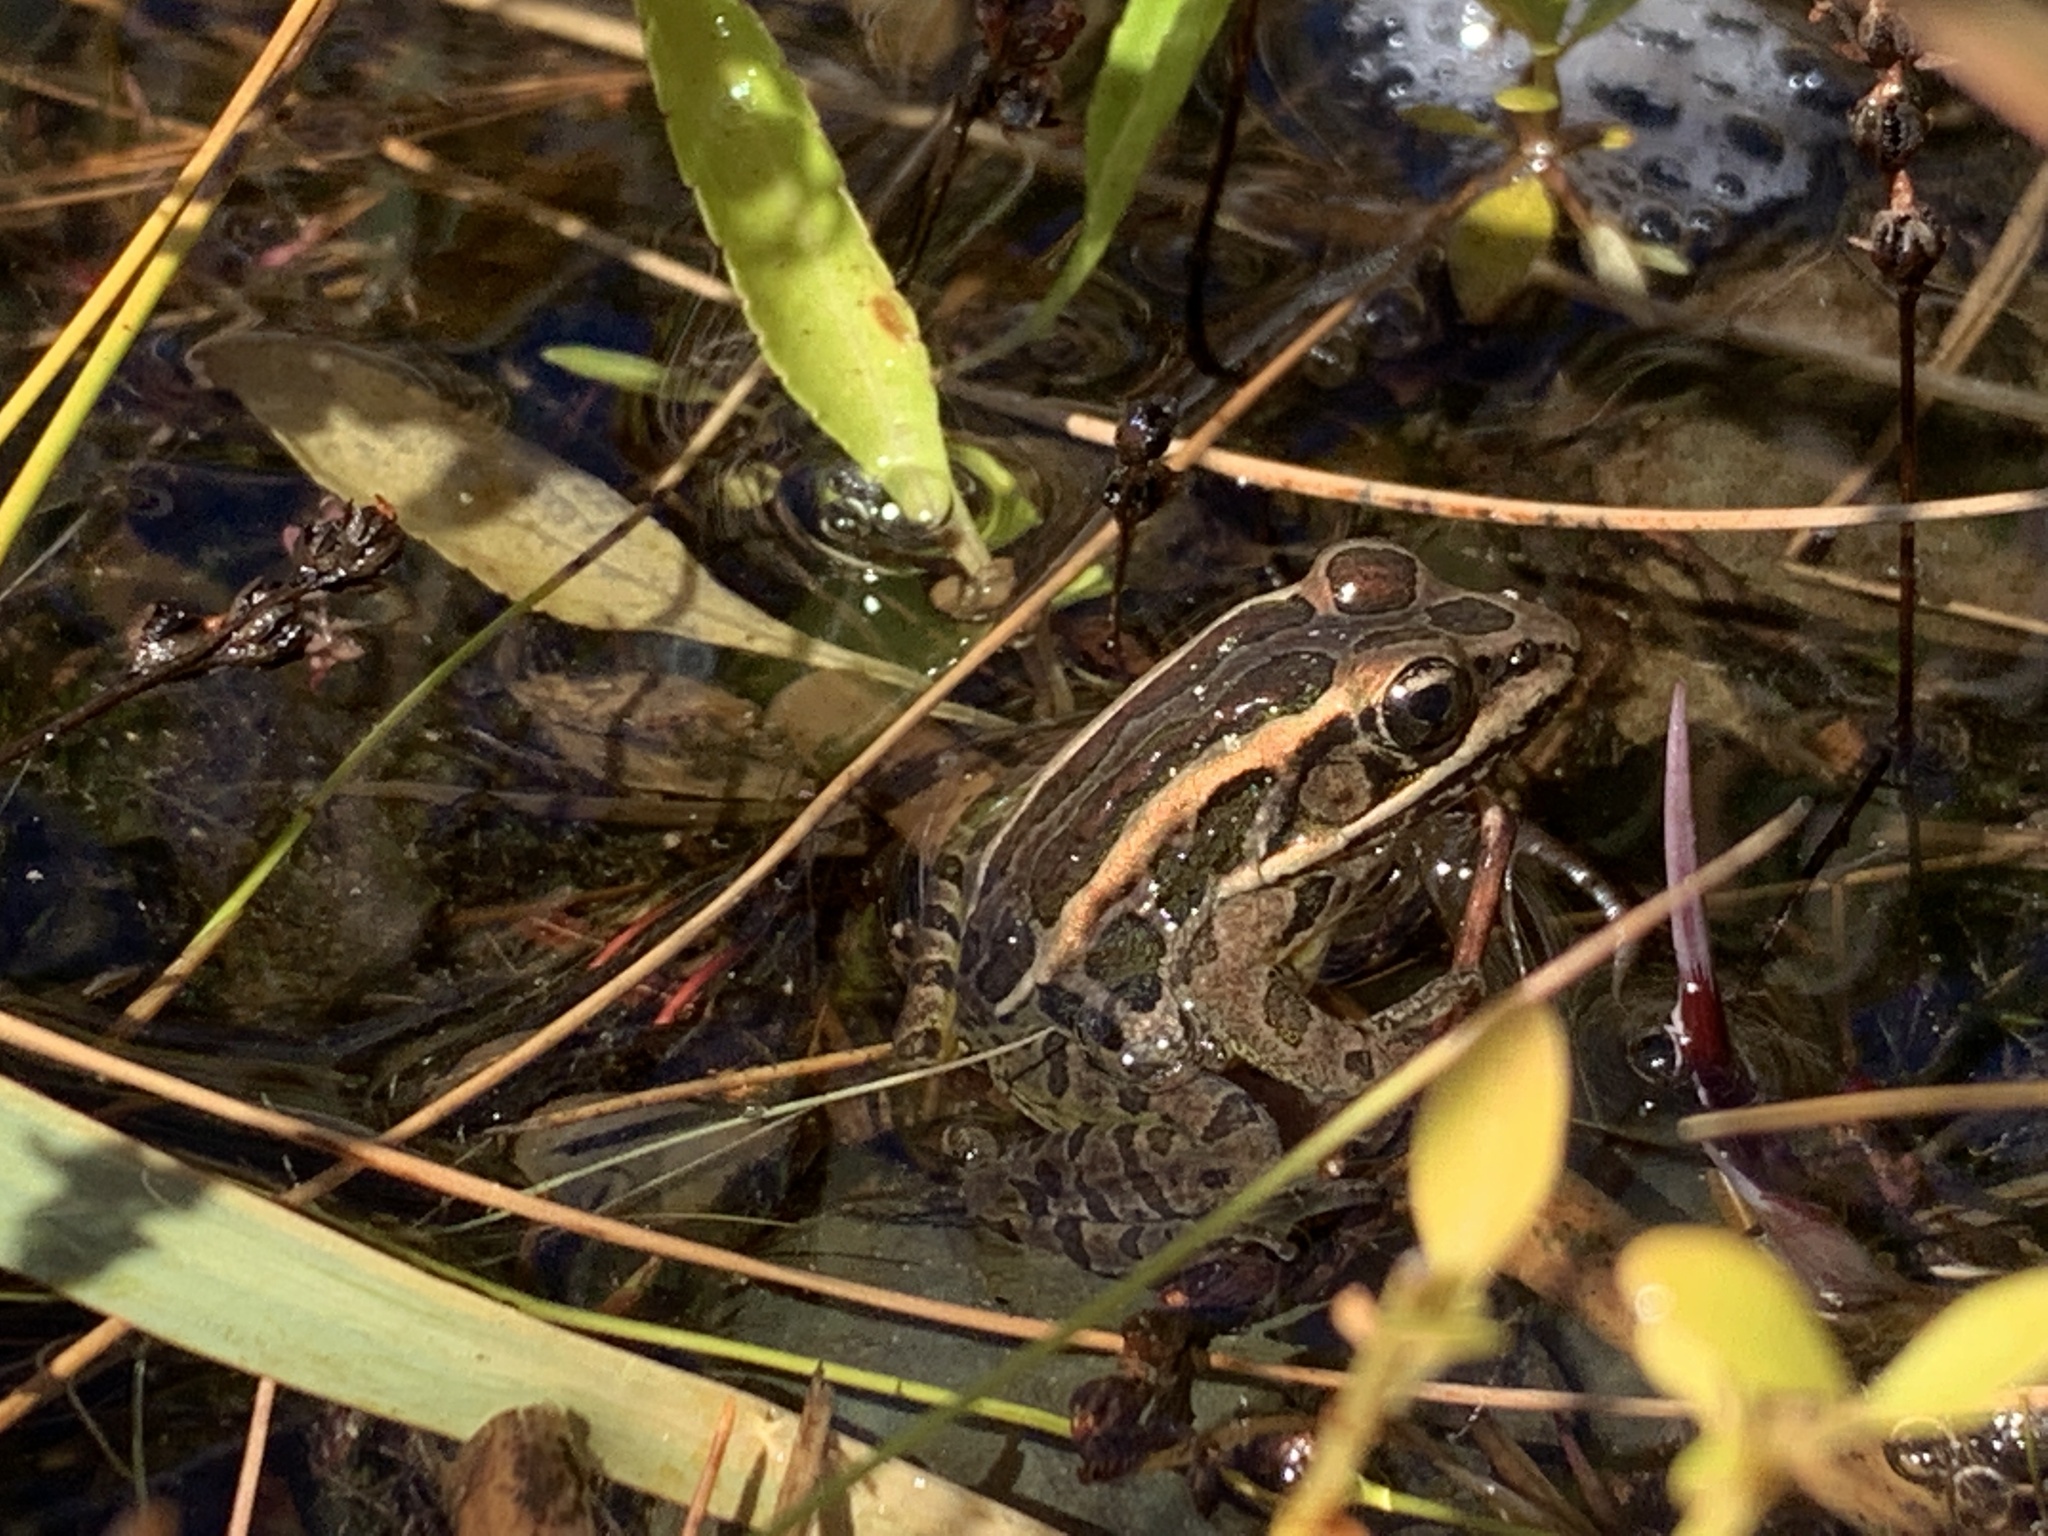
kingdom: Animalia
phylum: Chordata
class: Amphibia
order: Anura
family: Ranidae
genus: Lithobates
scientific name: Lithobates palustris
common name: Pickerel frog
